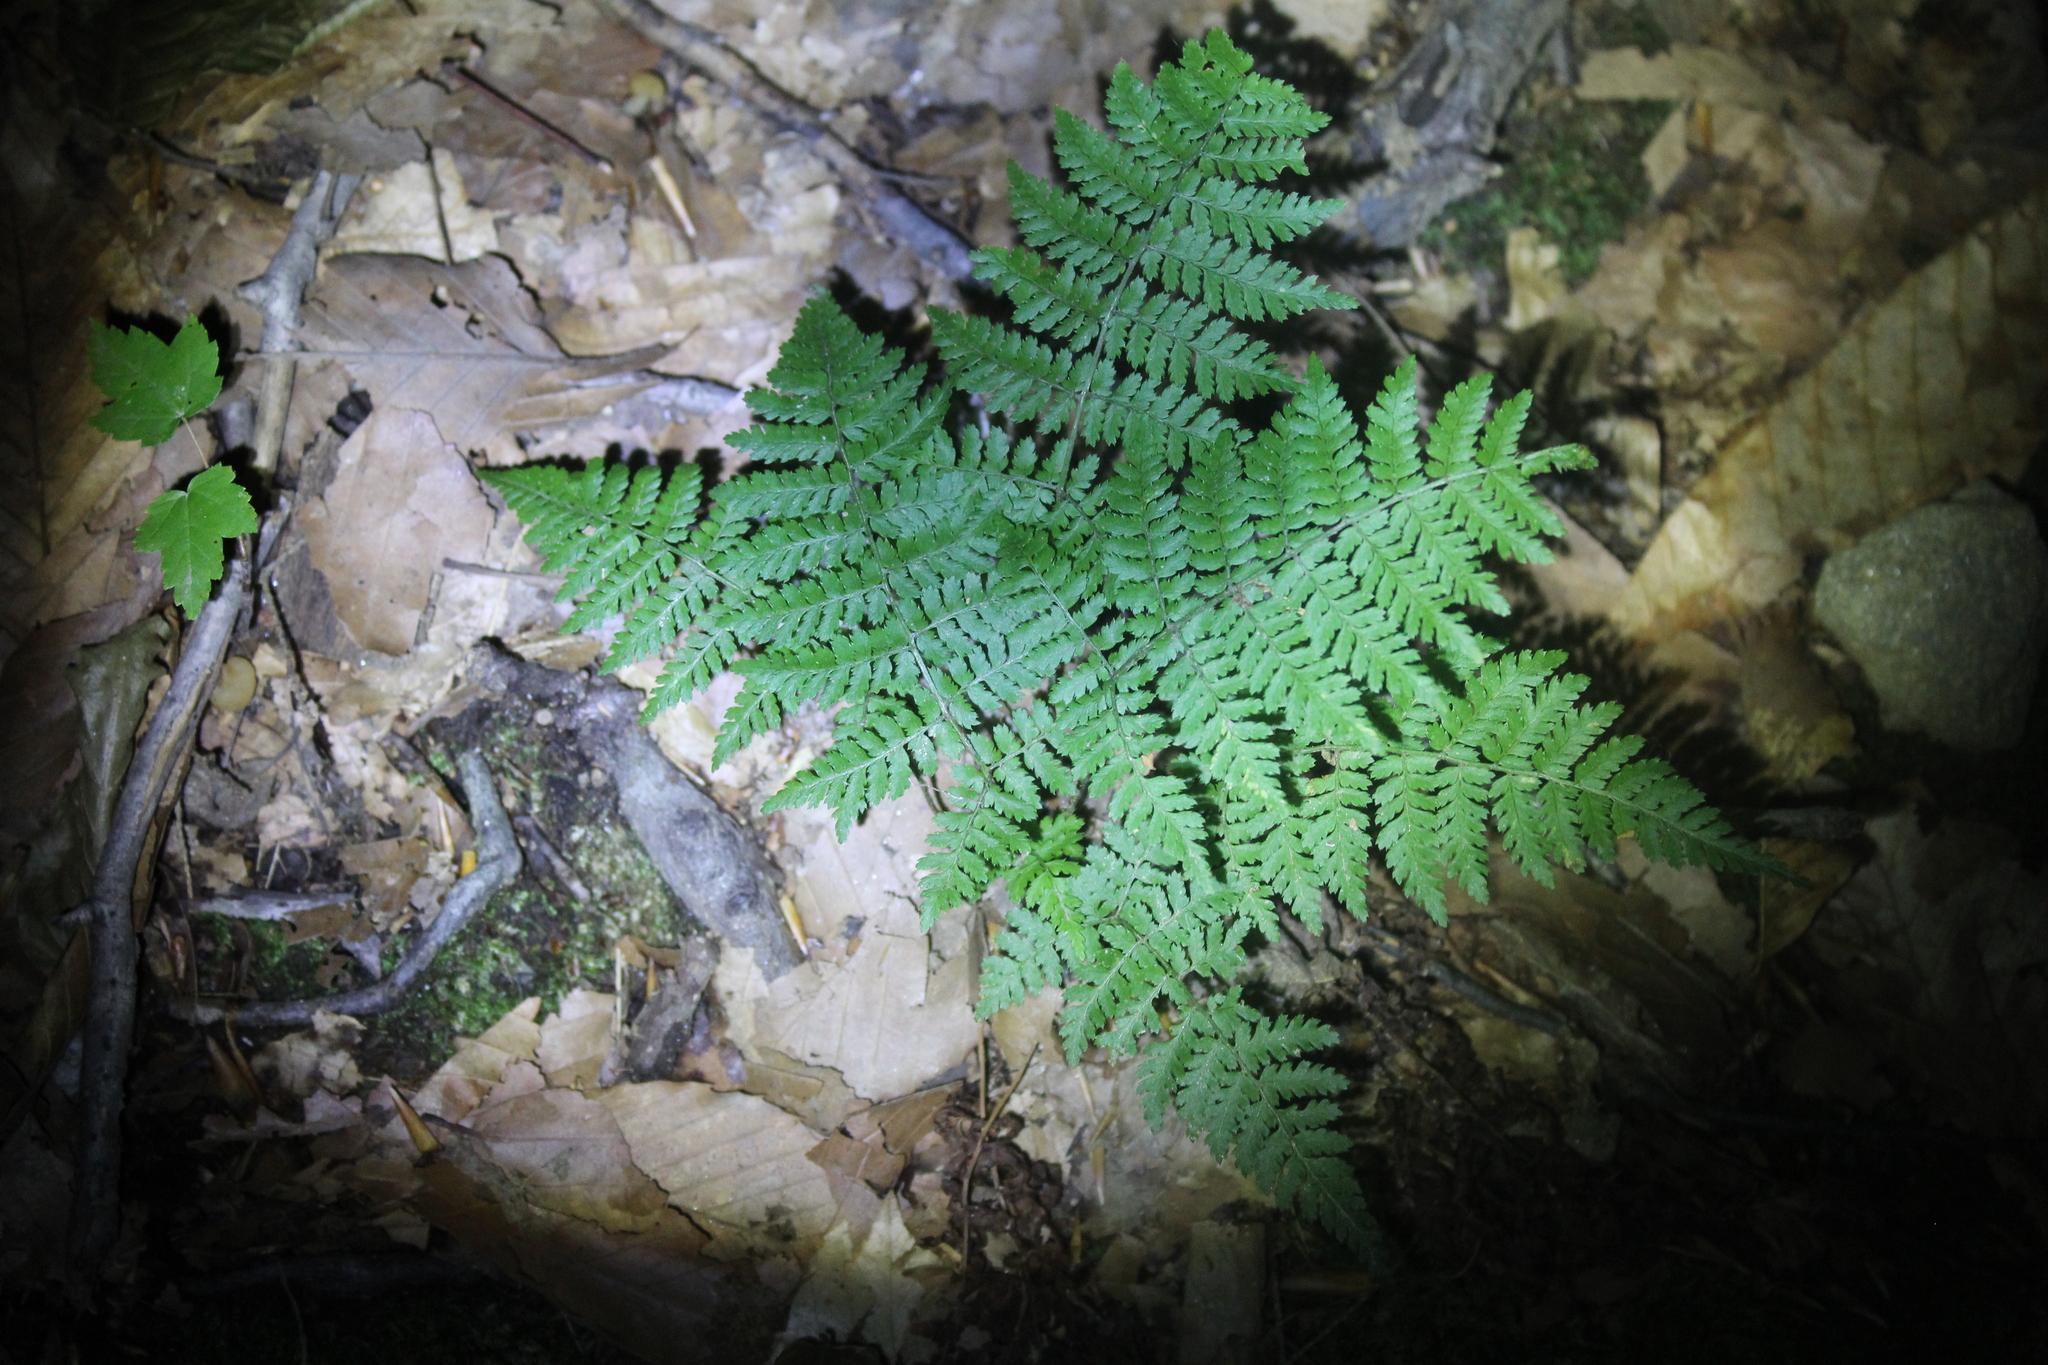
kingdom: Plantae
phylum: Tracheophyta
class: Polypodiopsida
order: Polypodiales
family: Dryopteridaceae
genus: Dryopteris
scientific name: Dryopteris intermedia
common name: Evergreen wood fern
